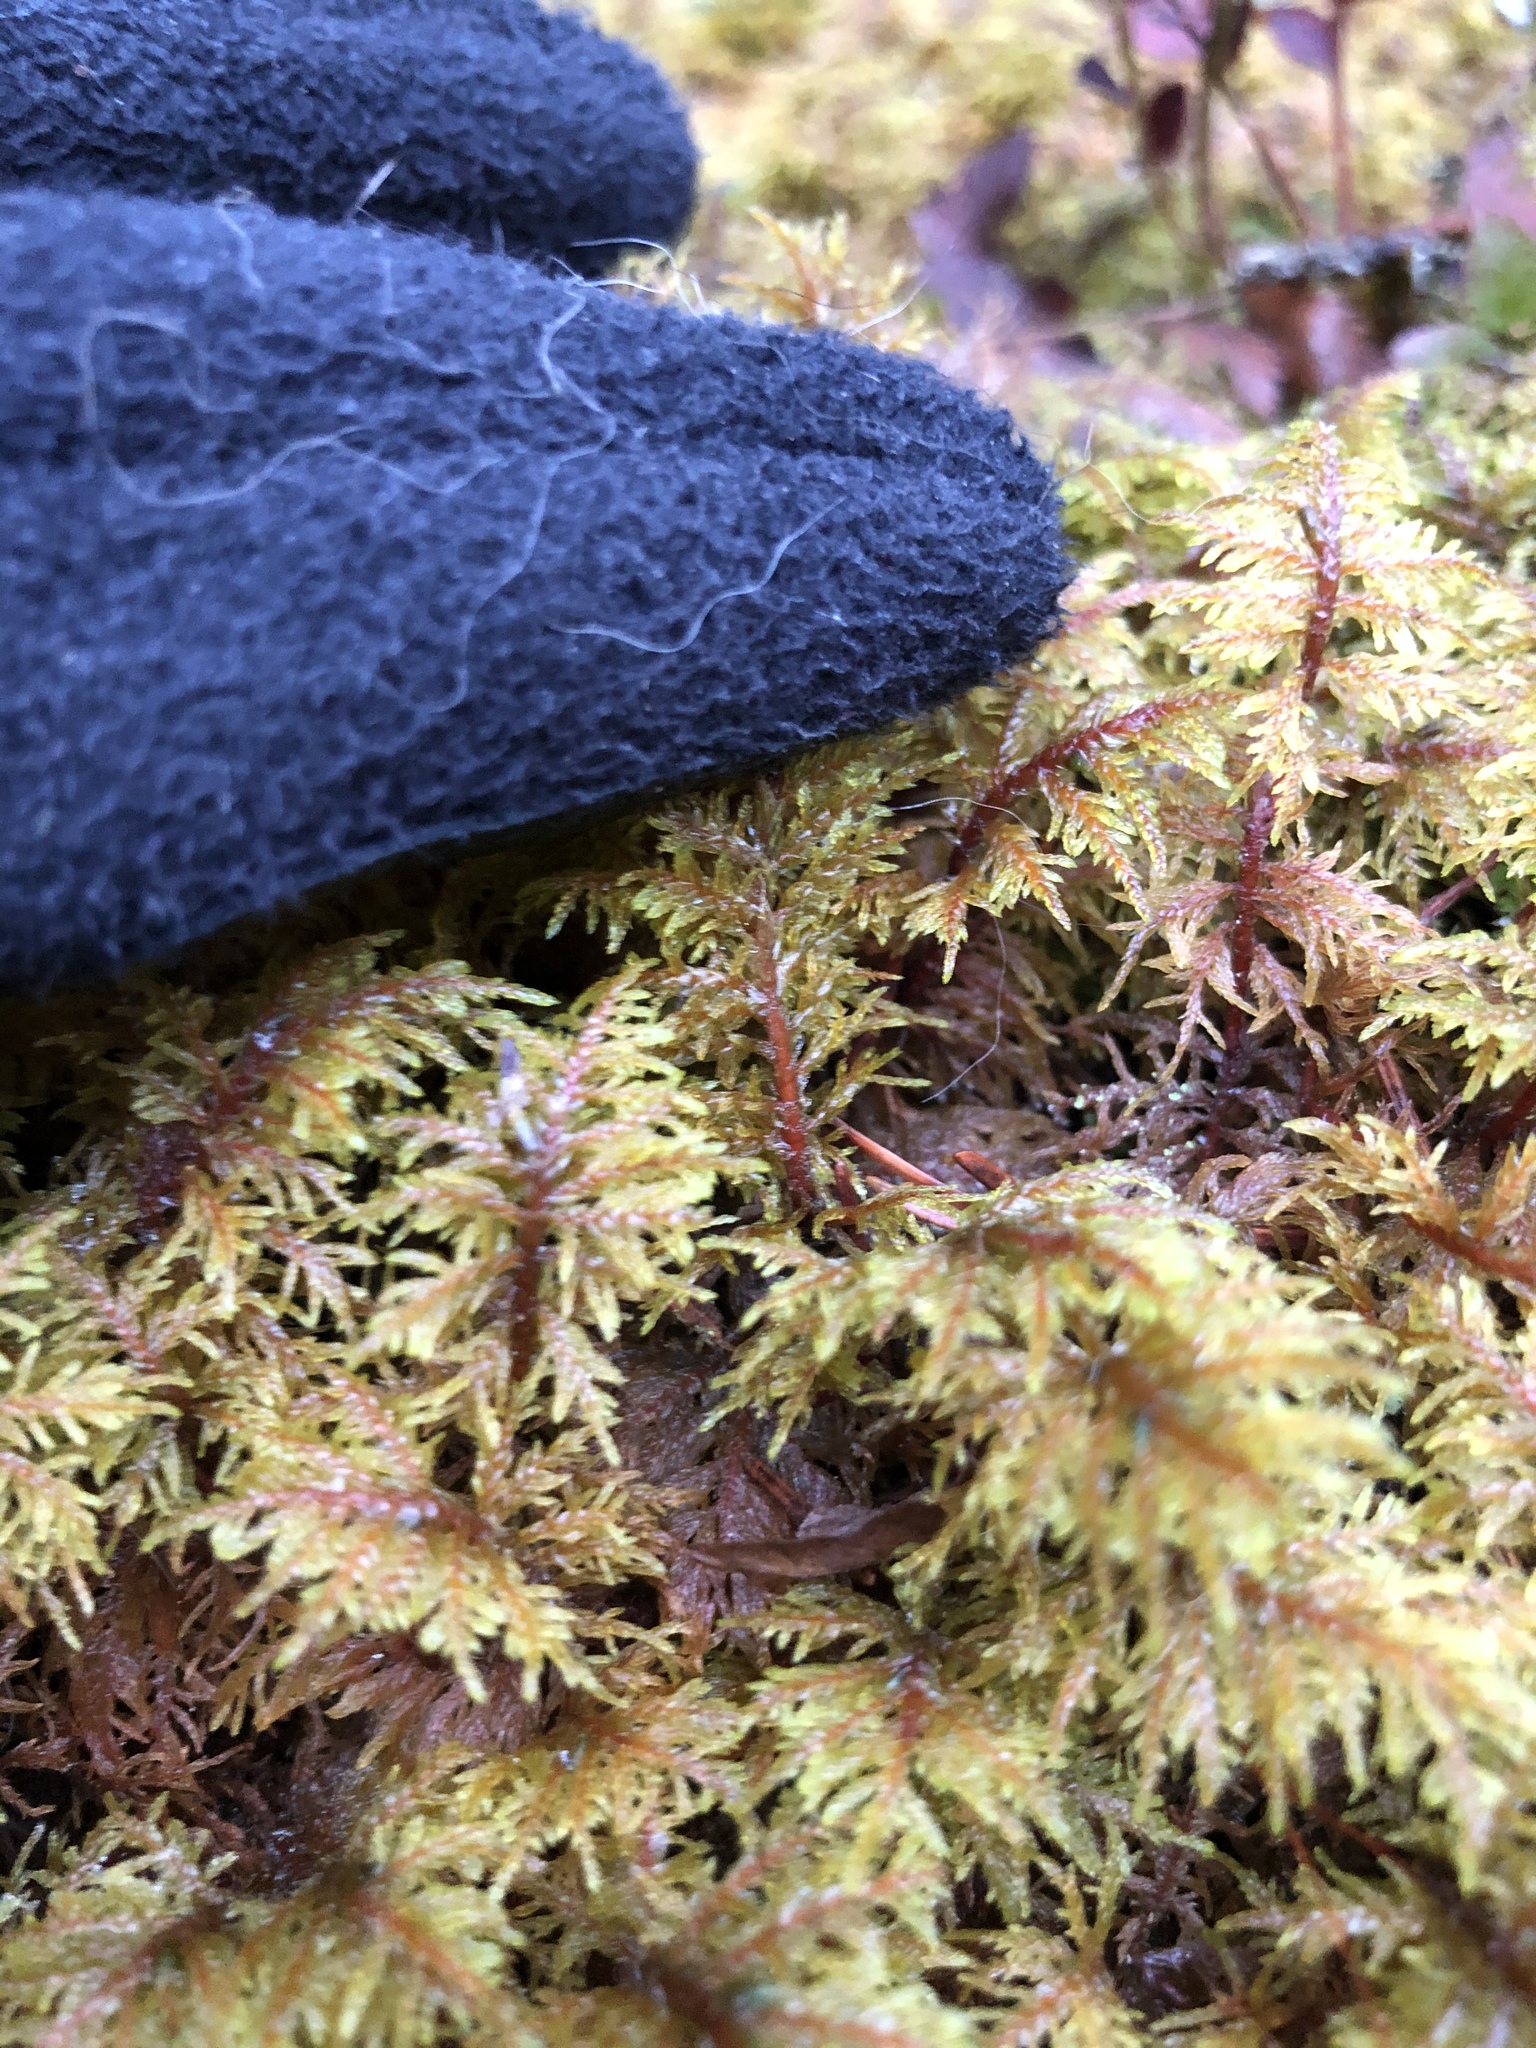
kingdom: Plantae
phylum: Bryophyta
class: Bryopsida
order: Hypnales
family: Hylocomiaceae
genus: Hylocomium
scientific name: Hylocomium splendens
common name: Stairstep moss
